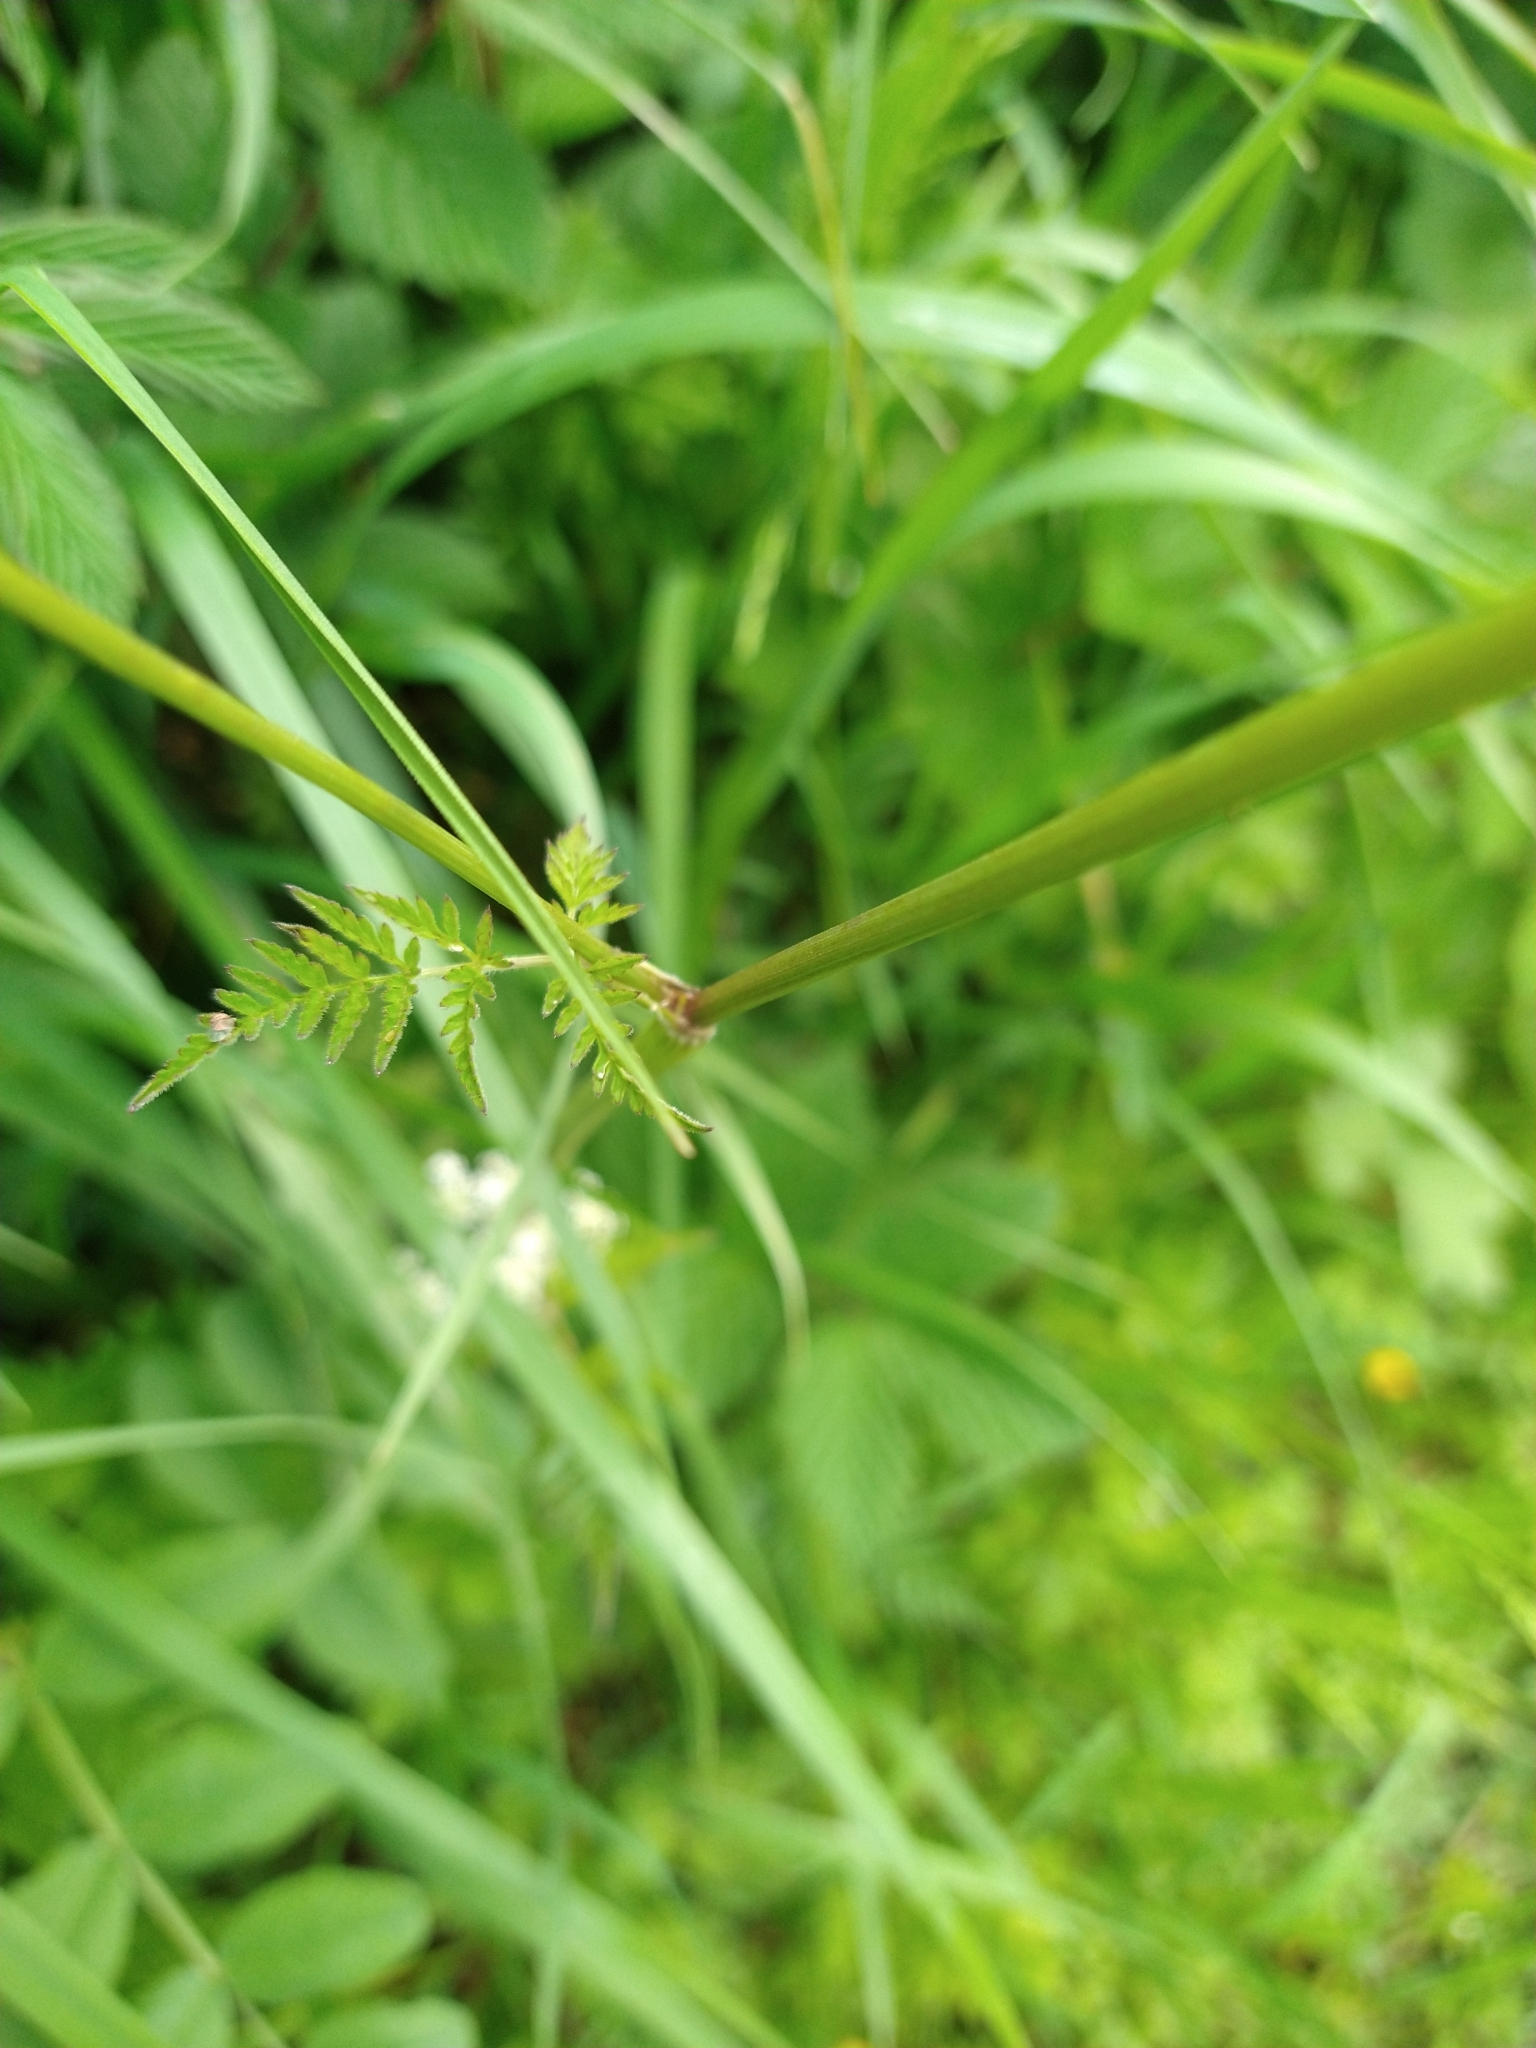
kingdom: Plantae
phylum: Tracheophyta
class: Magnoliopsida
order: Apiales
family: Apiaceae
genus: Anthriscus
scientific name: Anthriscus sylvestris
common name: Cow parsley
